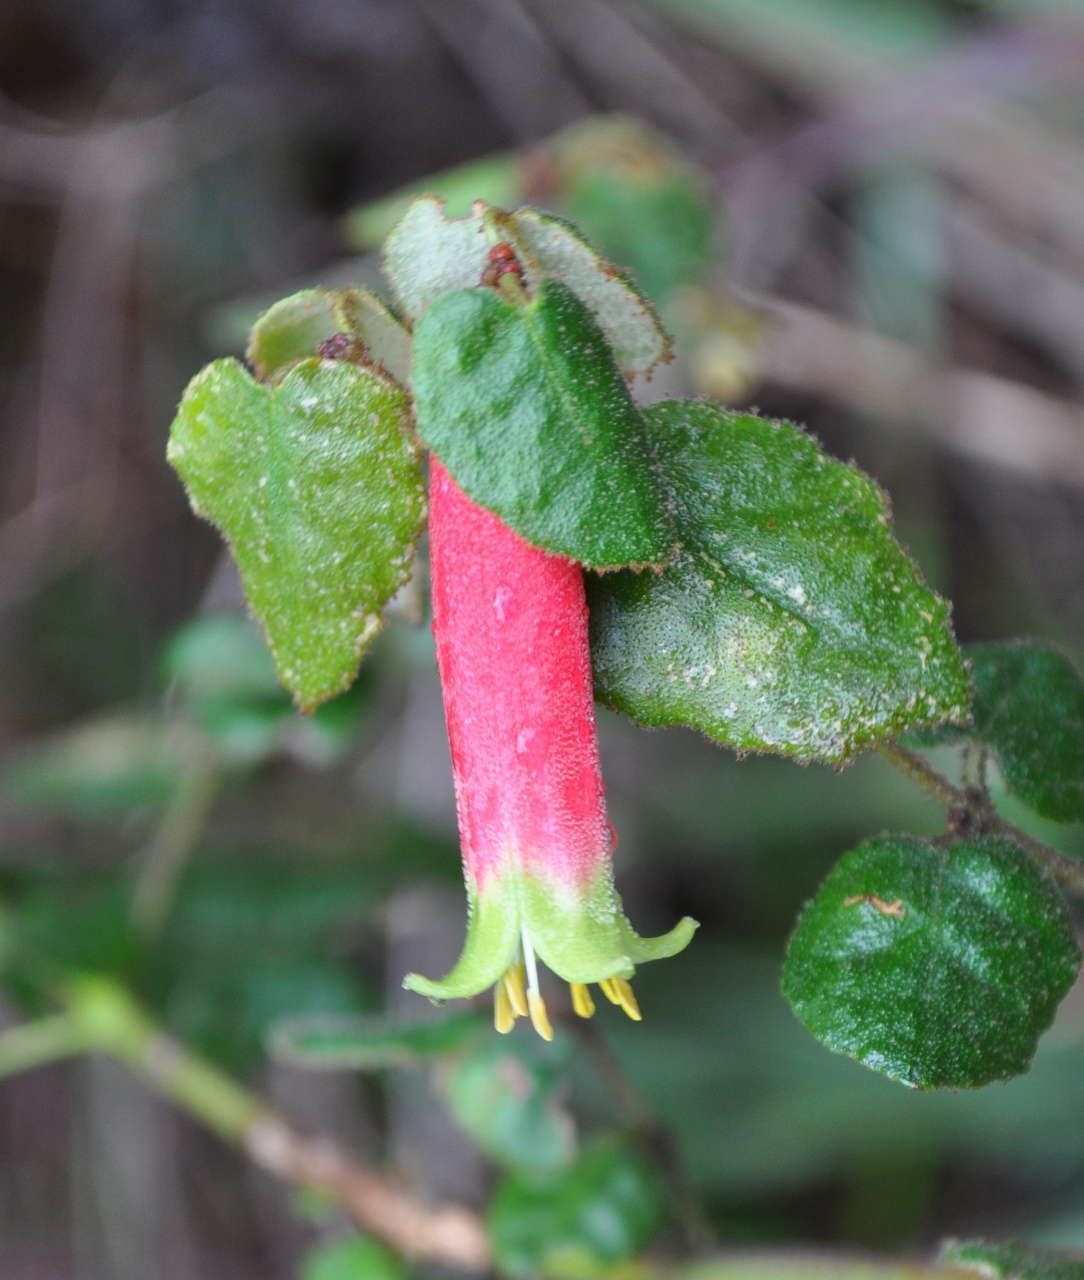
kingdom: Plantae
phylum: Tracheophyta
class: Magnoliopsida
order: Sapindales
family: Rutaceae
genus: Correa
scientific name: Correa reflexa
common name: Common correa
